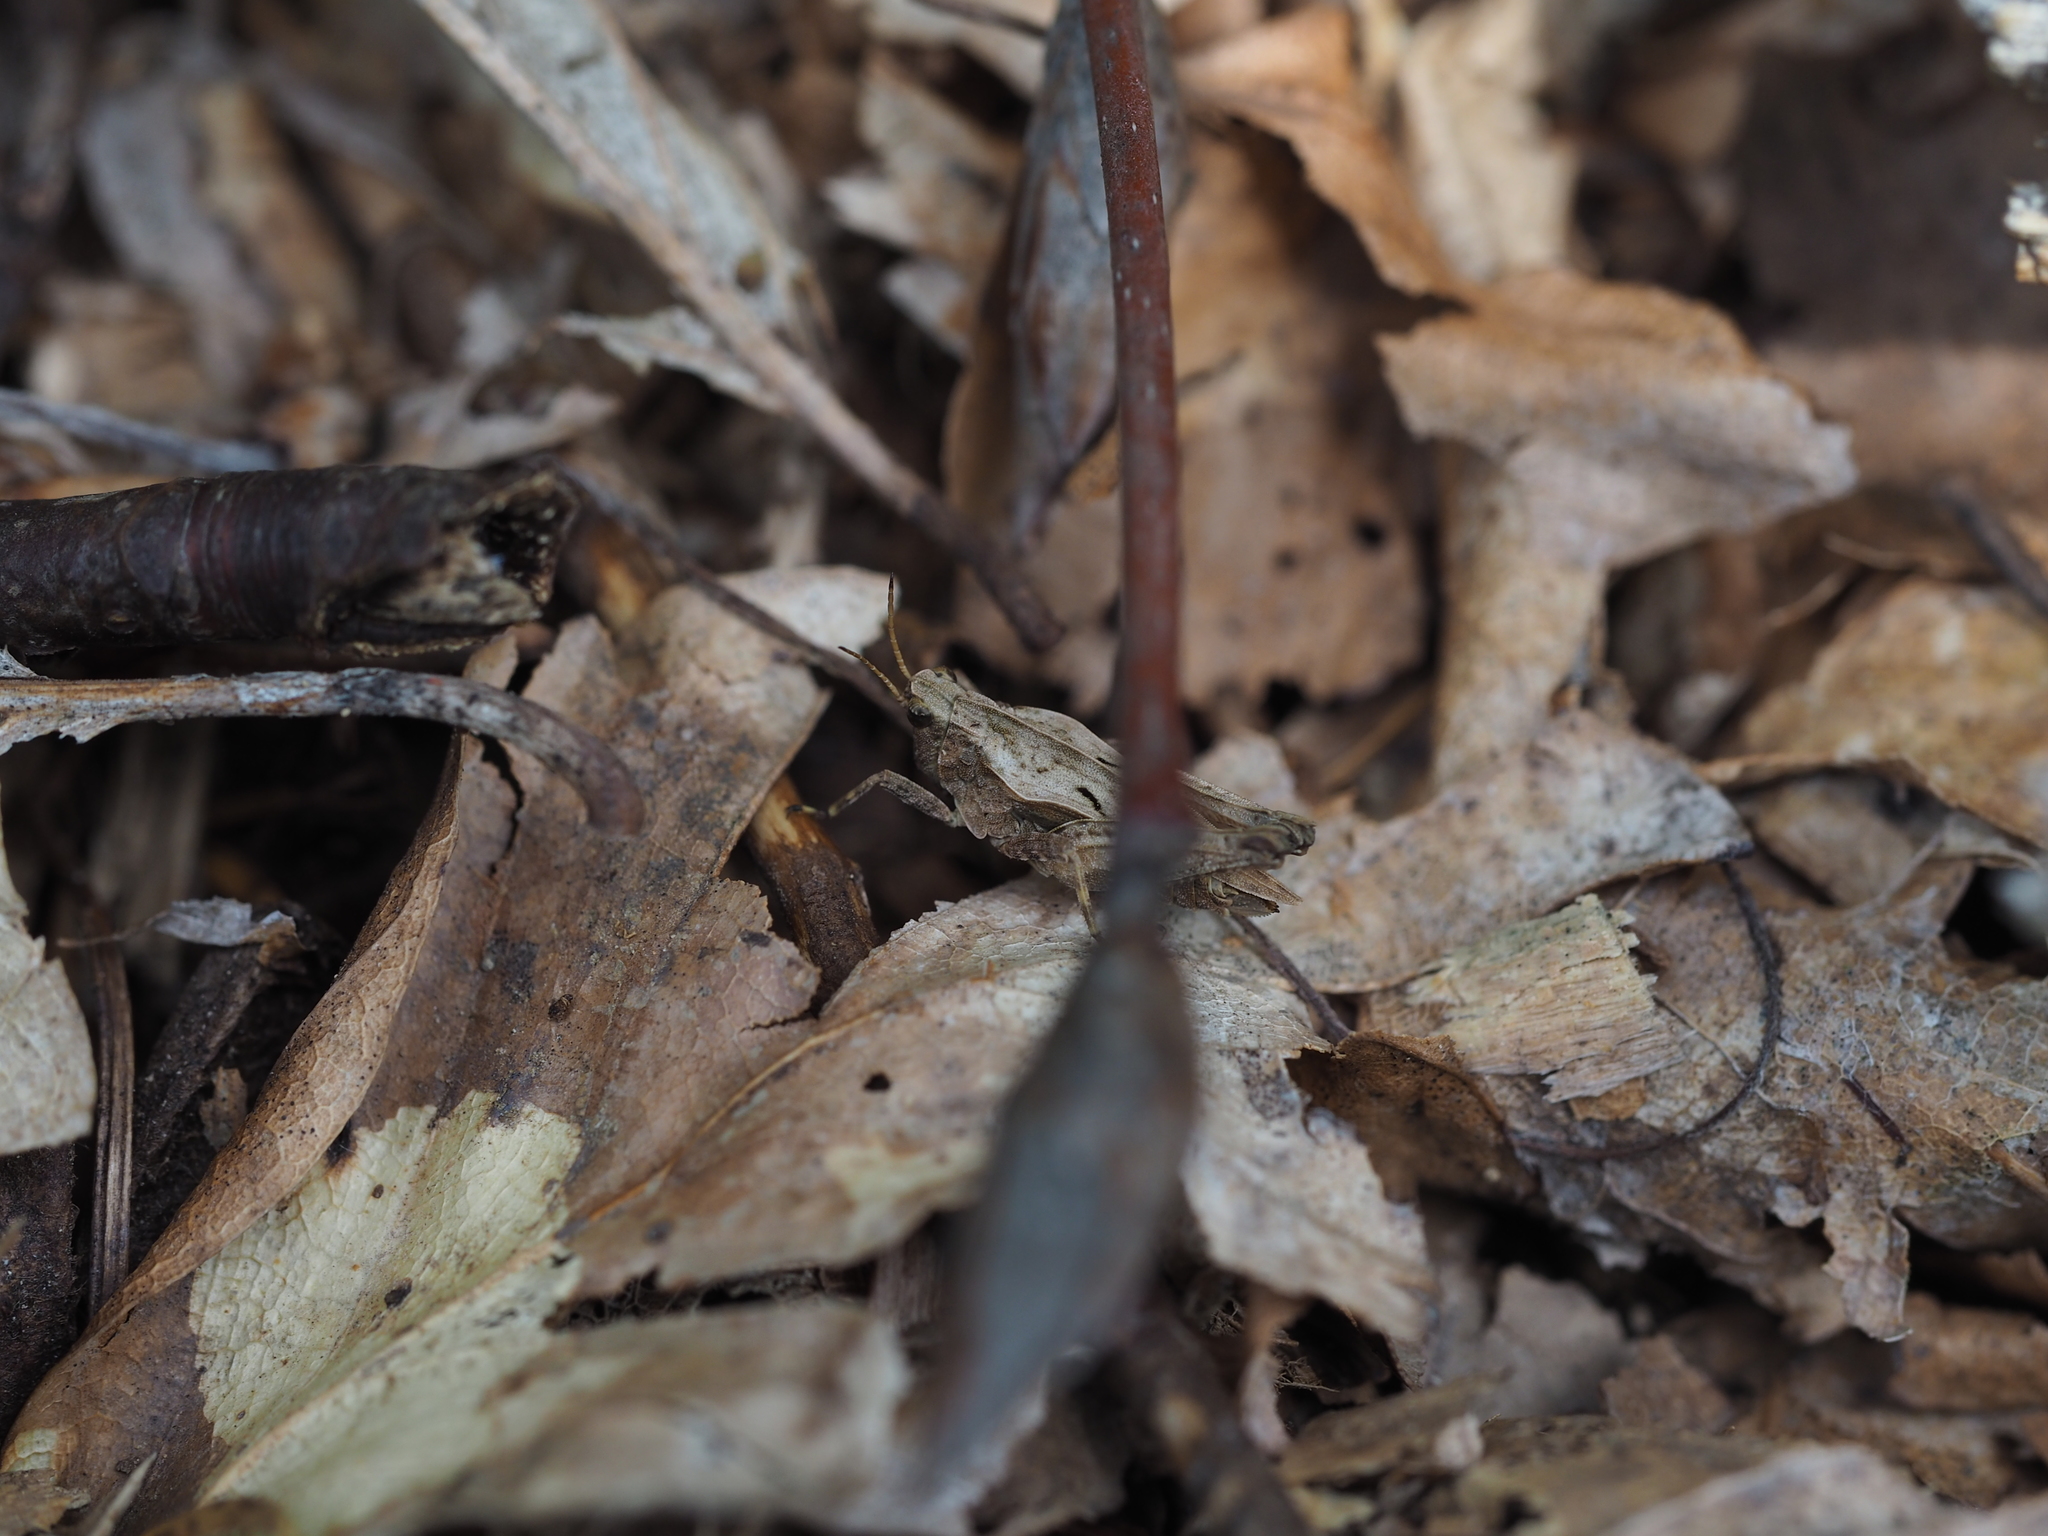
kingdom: Animalia
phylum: Arthropoda
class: Insecta
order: Orthoptera
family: Tetrigidae
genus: Tetrix
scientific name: Tetrix subulata
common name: Slender ground-hopper
